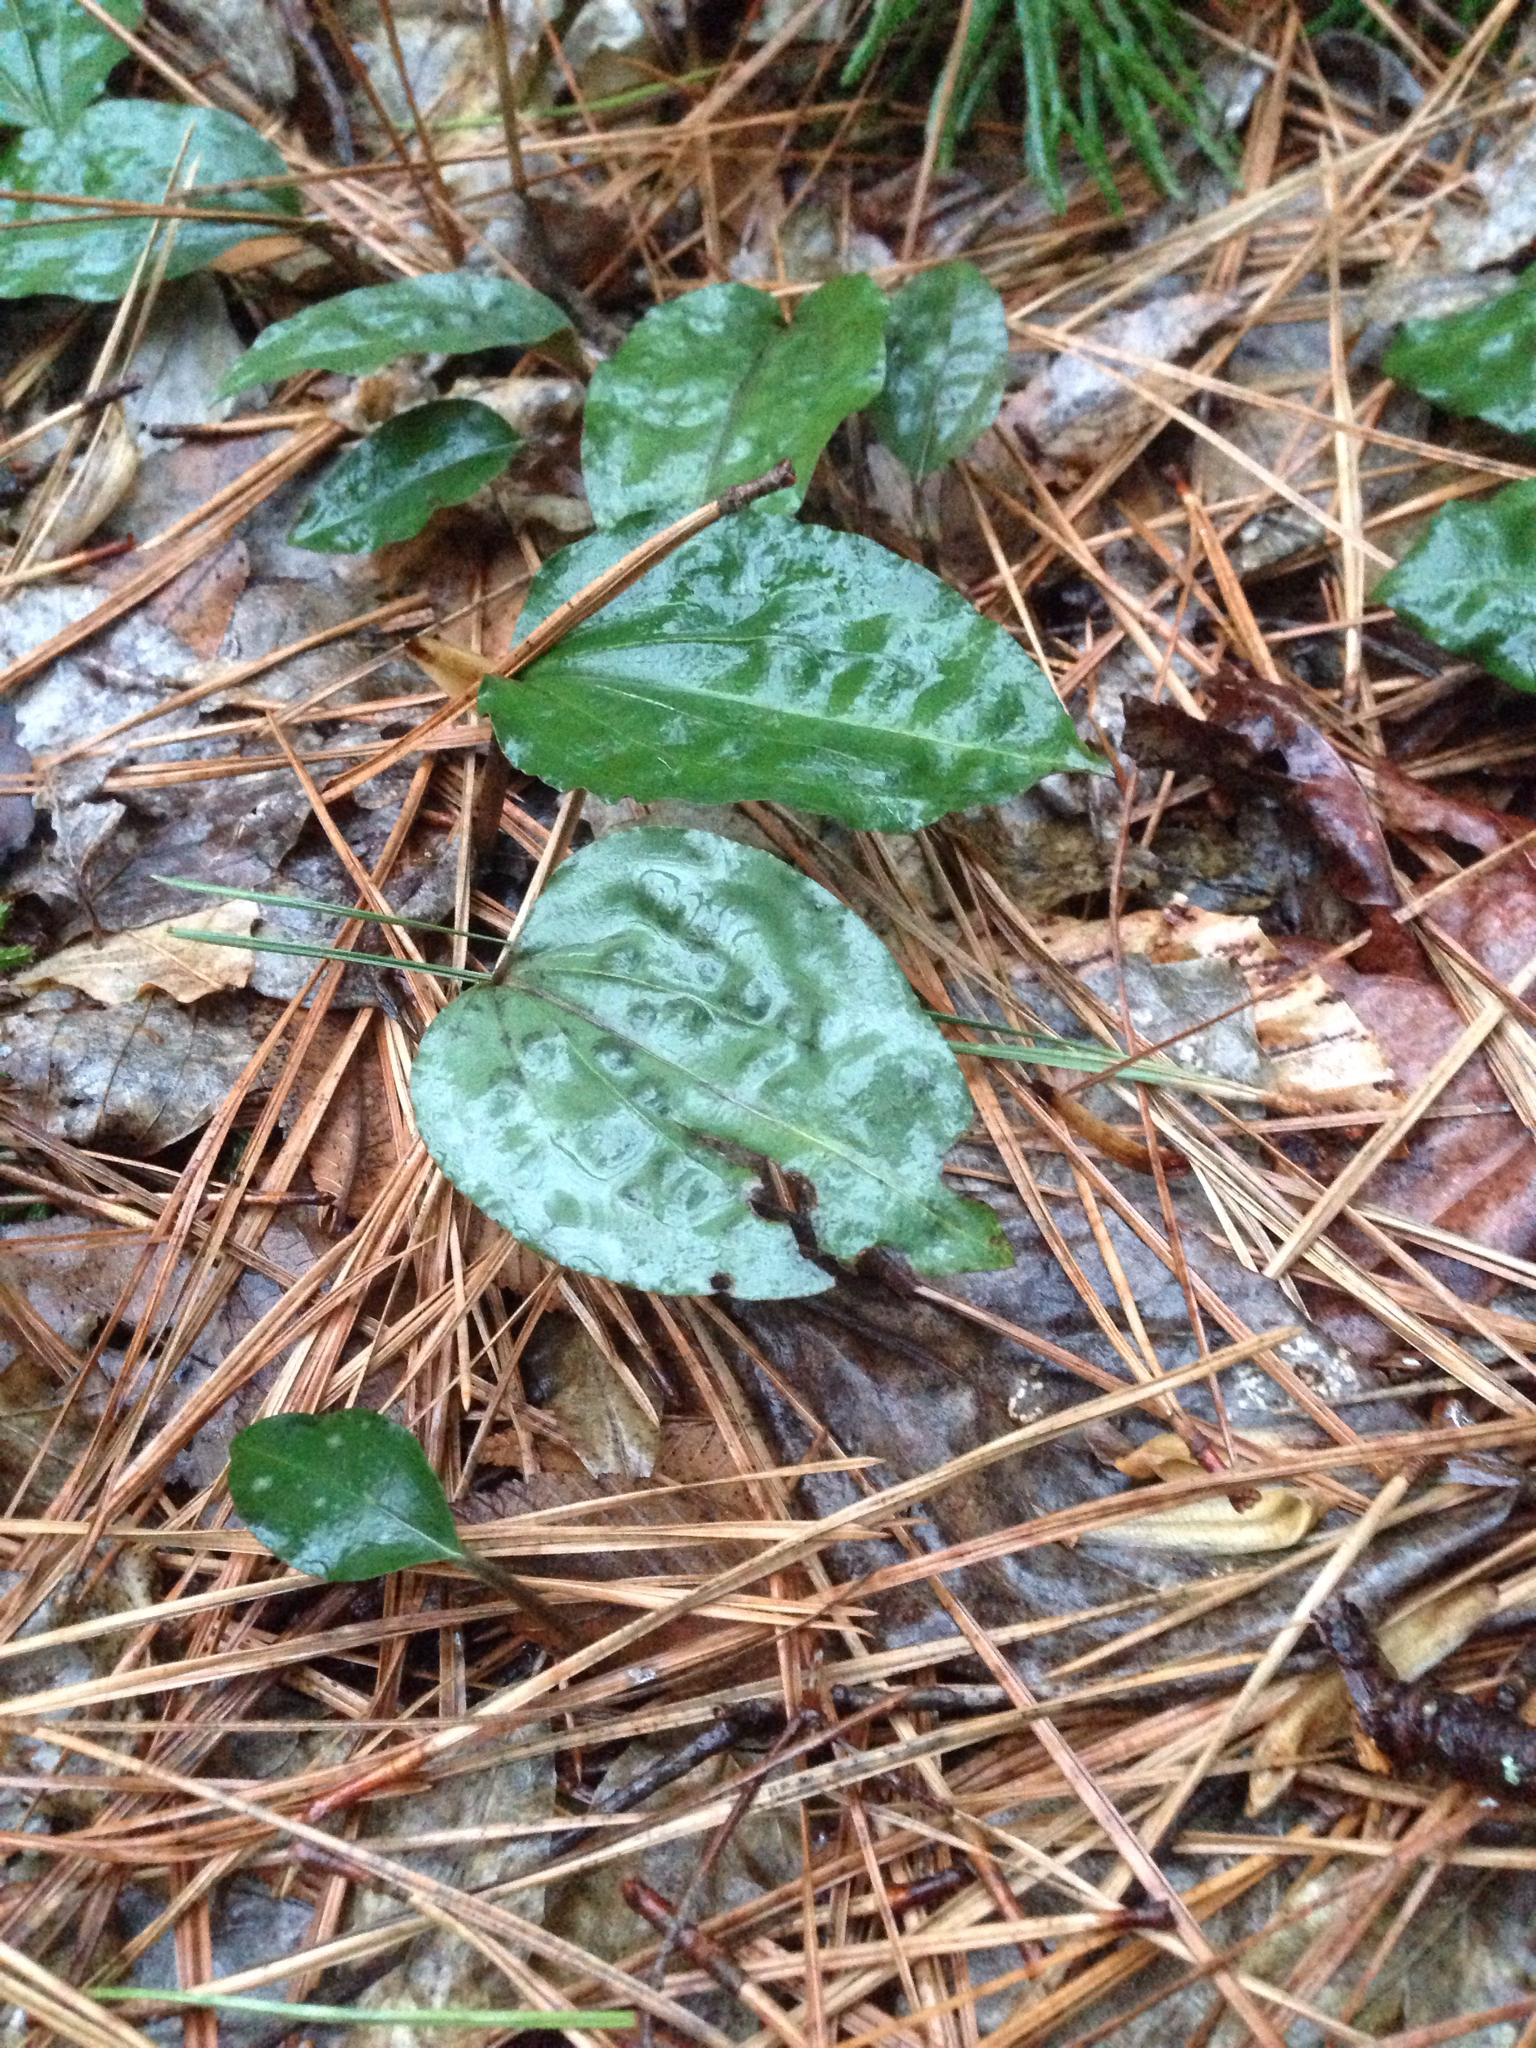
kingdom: Plantae
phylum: Tracheophyta
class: Liliopsida
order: Asparagales
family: Orchidaceae
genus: Tipularia
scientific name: Tipularia discolor
